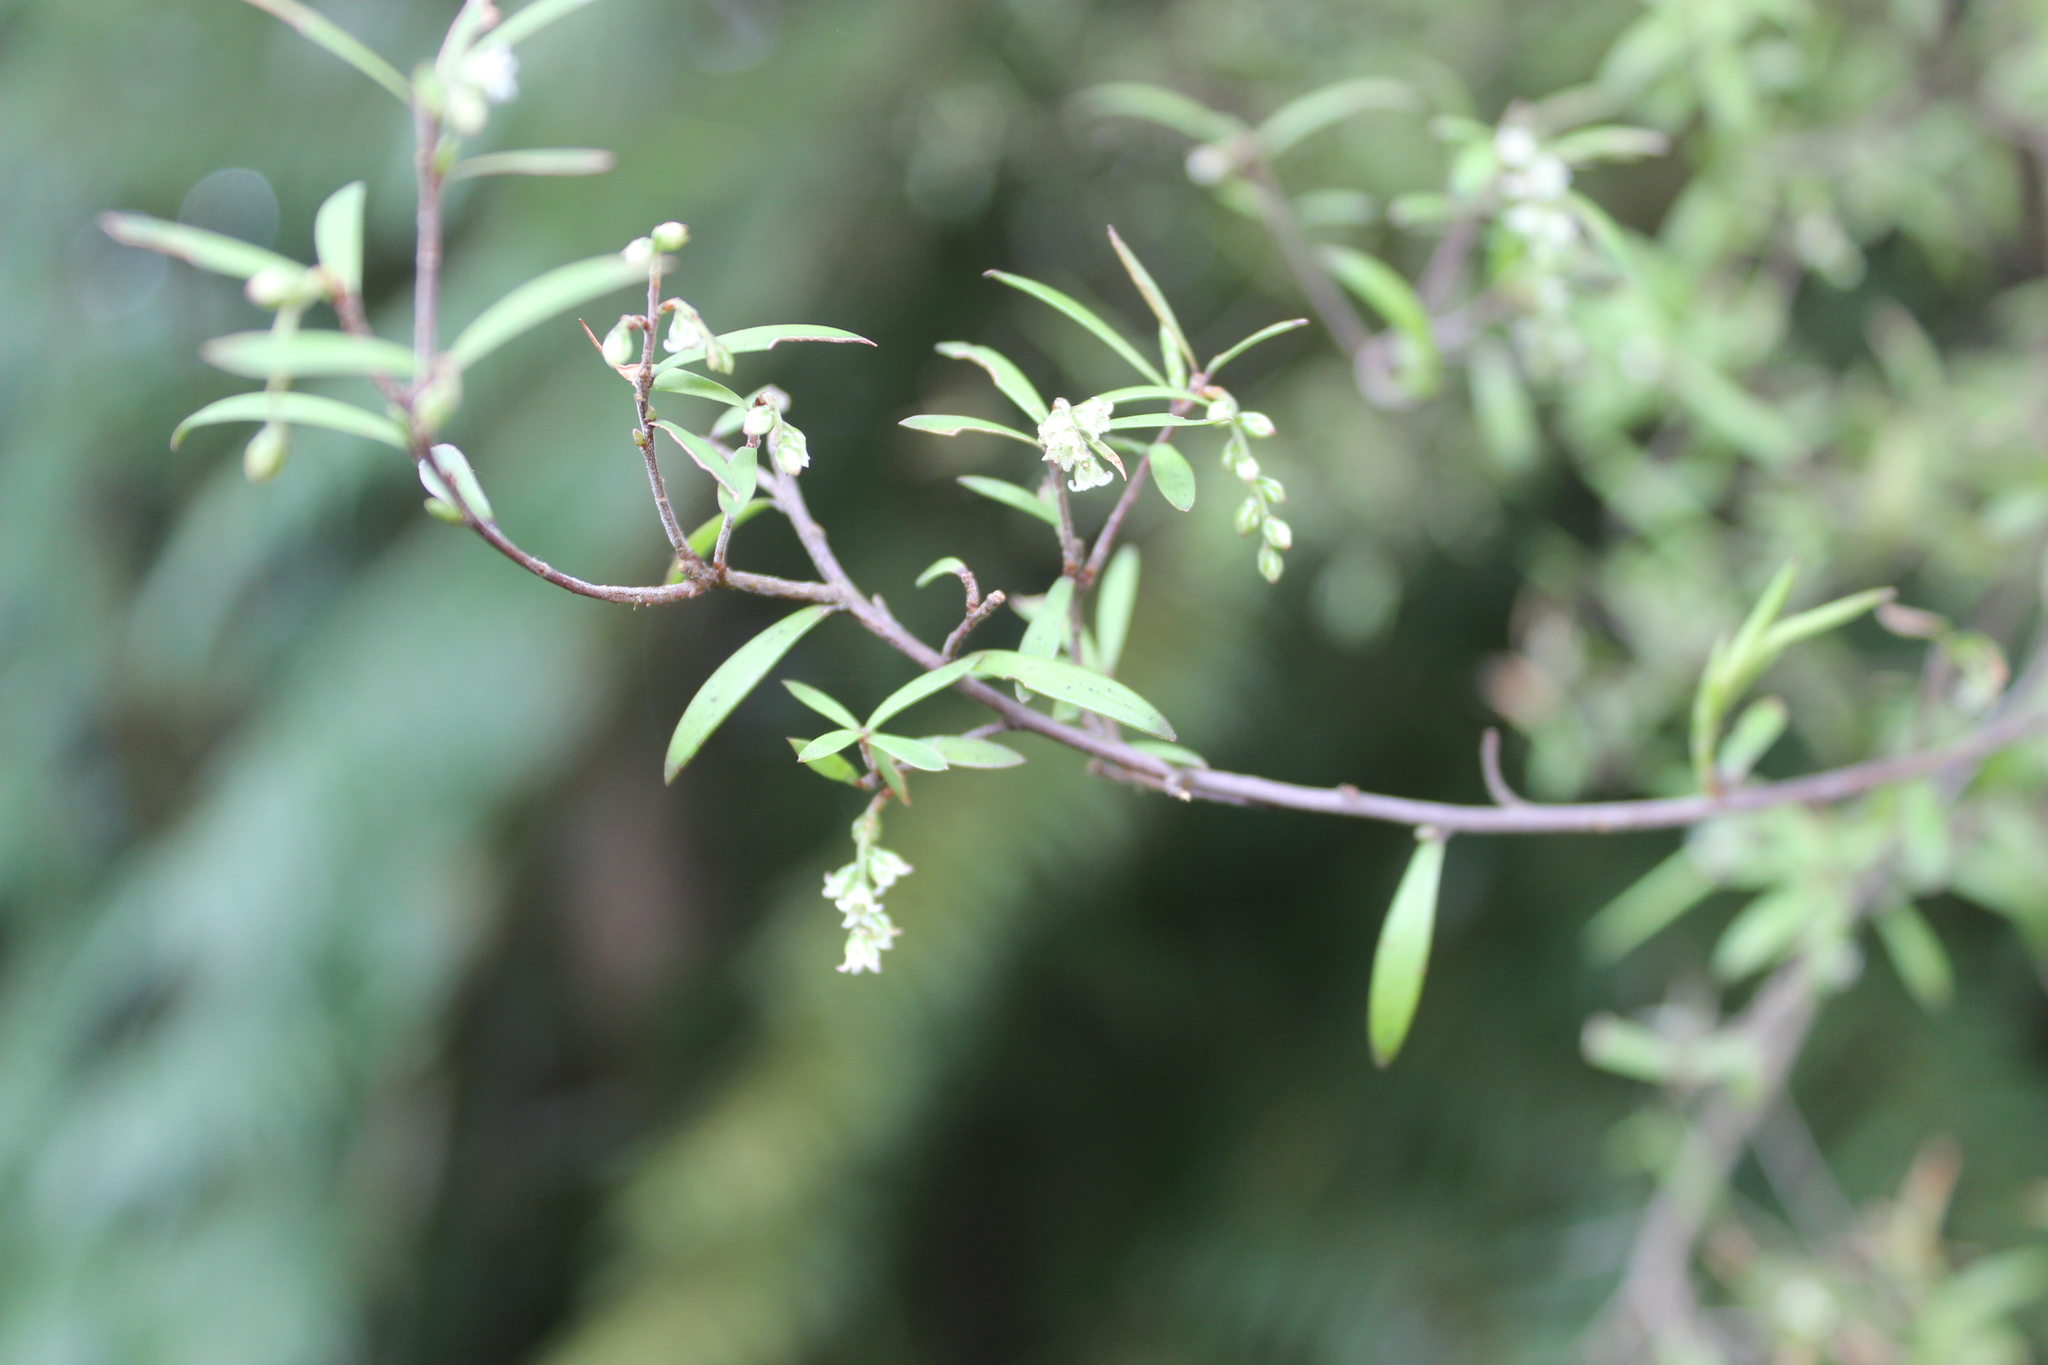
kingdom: Plantae
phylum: Tracheophyta
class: Magnoliopsida
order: Ericales
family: Ericaceae
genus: Leucopogon
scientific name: Leucopogon fasciculatus
